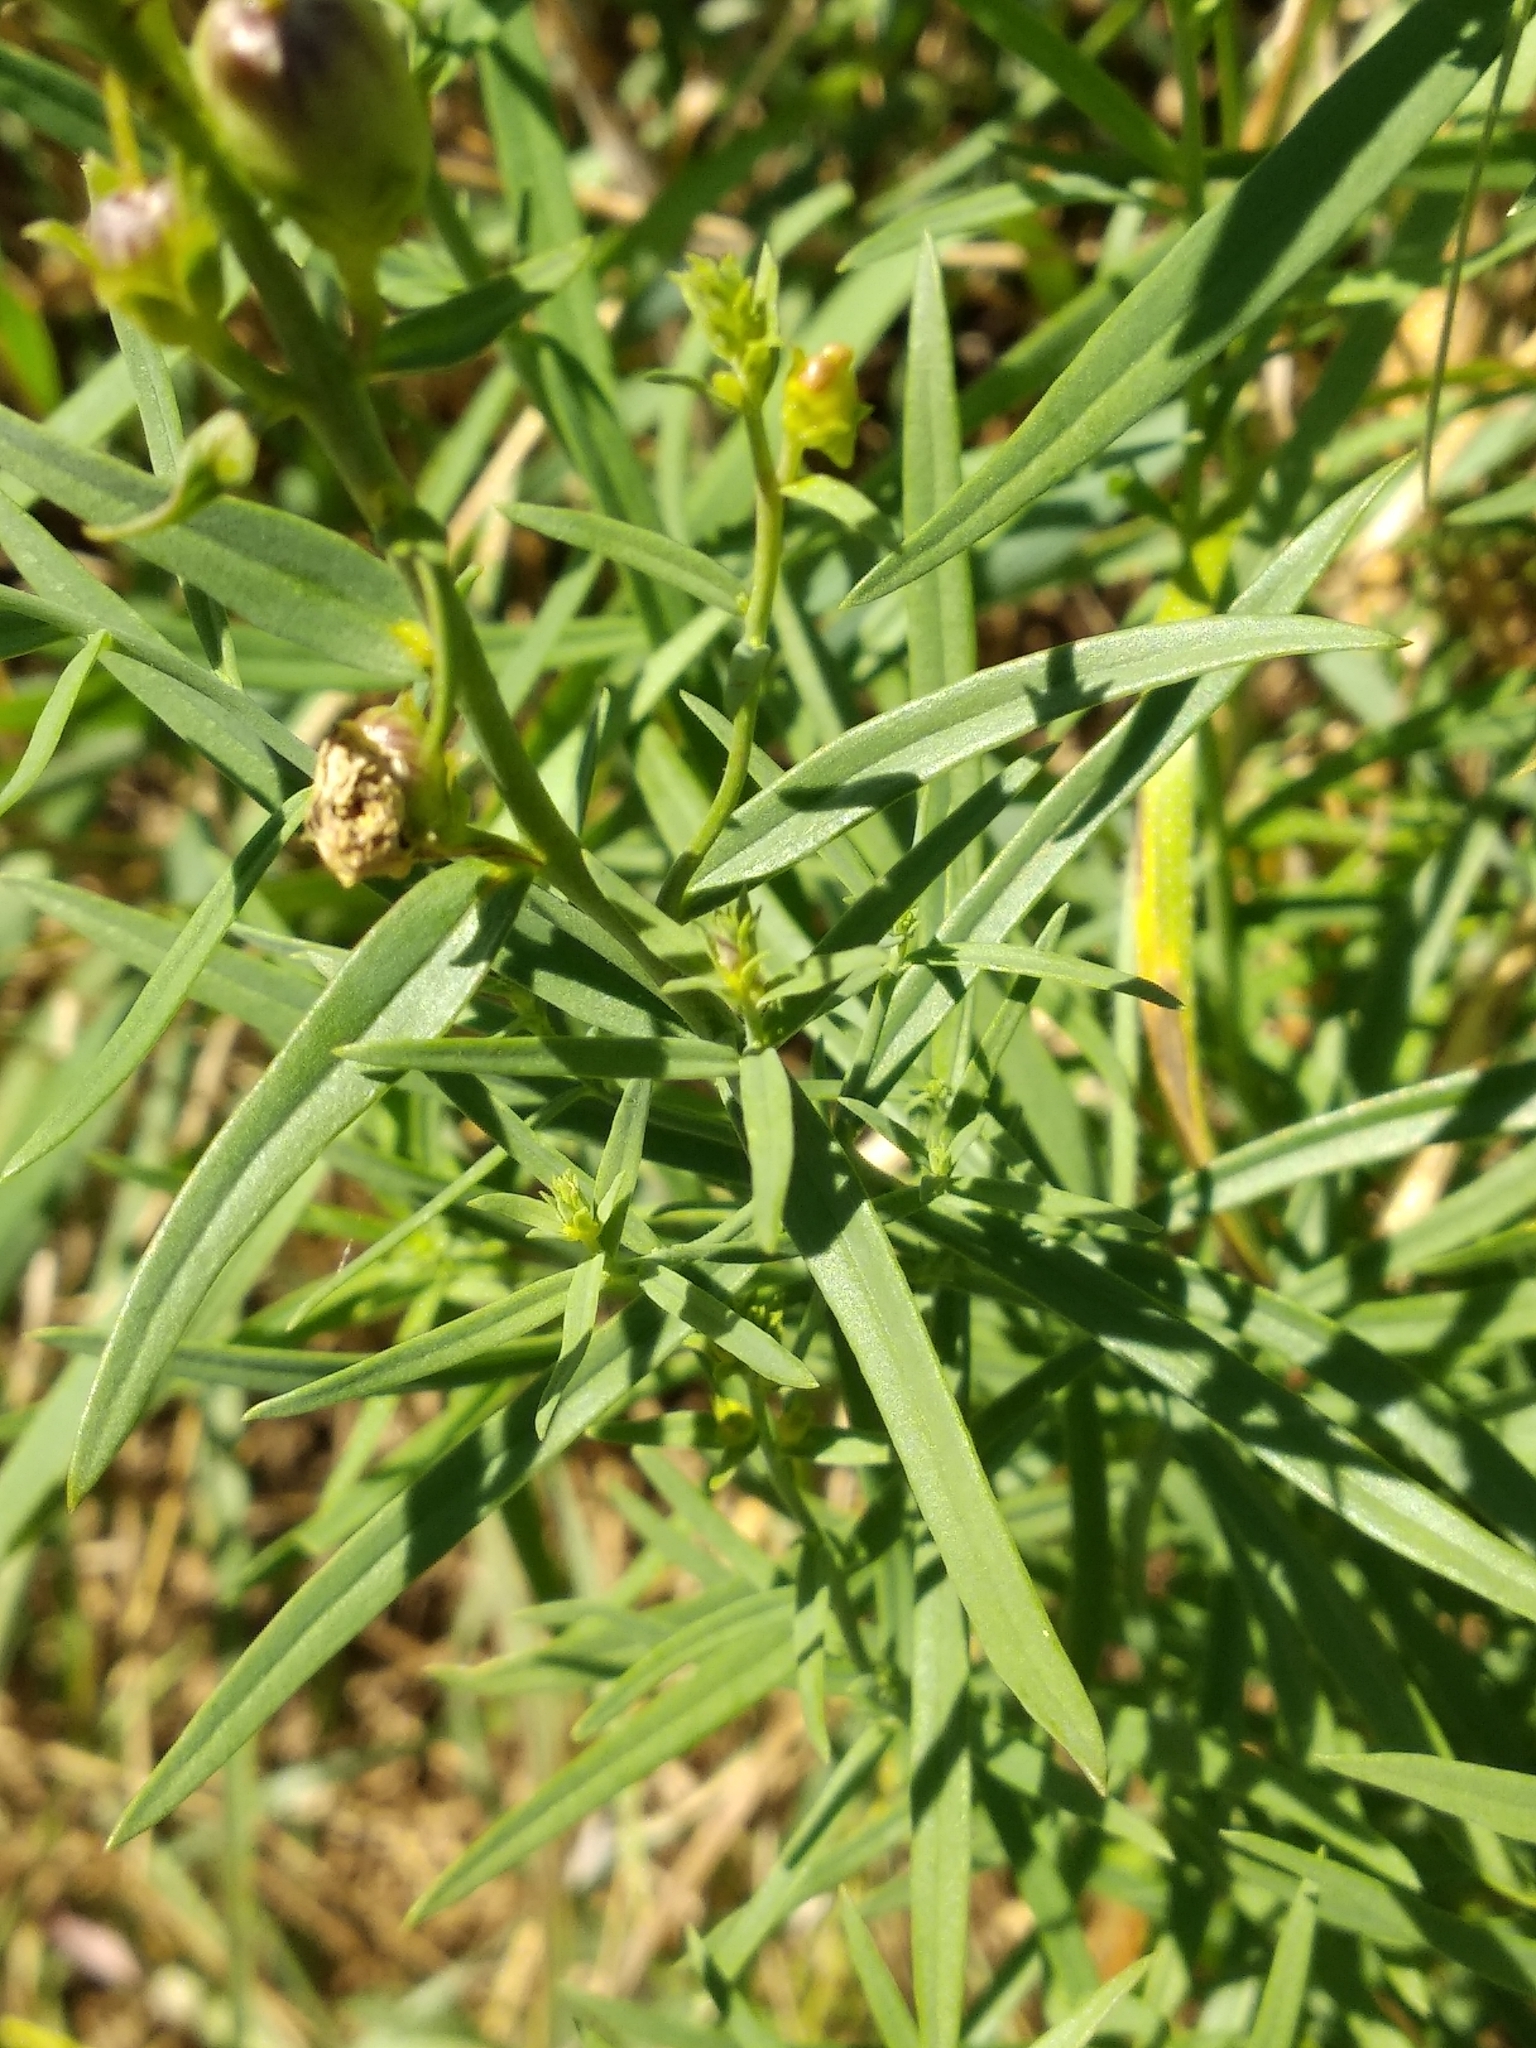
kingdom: Plantae
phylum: Tracheophyta
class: Magnoliopsida
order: Lamiales
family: Plantaginaceae
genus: Linaria
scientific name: Linaria vulgaris
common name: Butter and eggs
